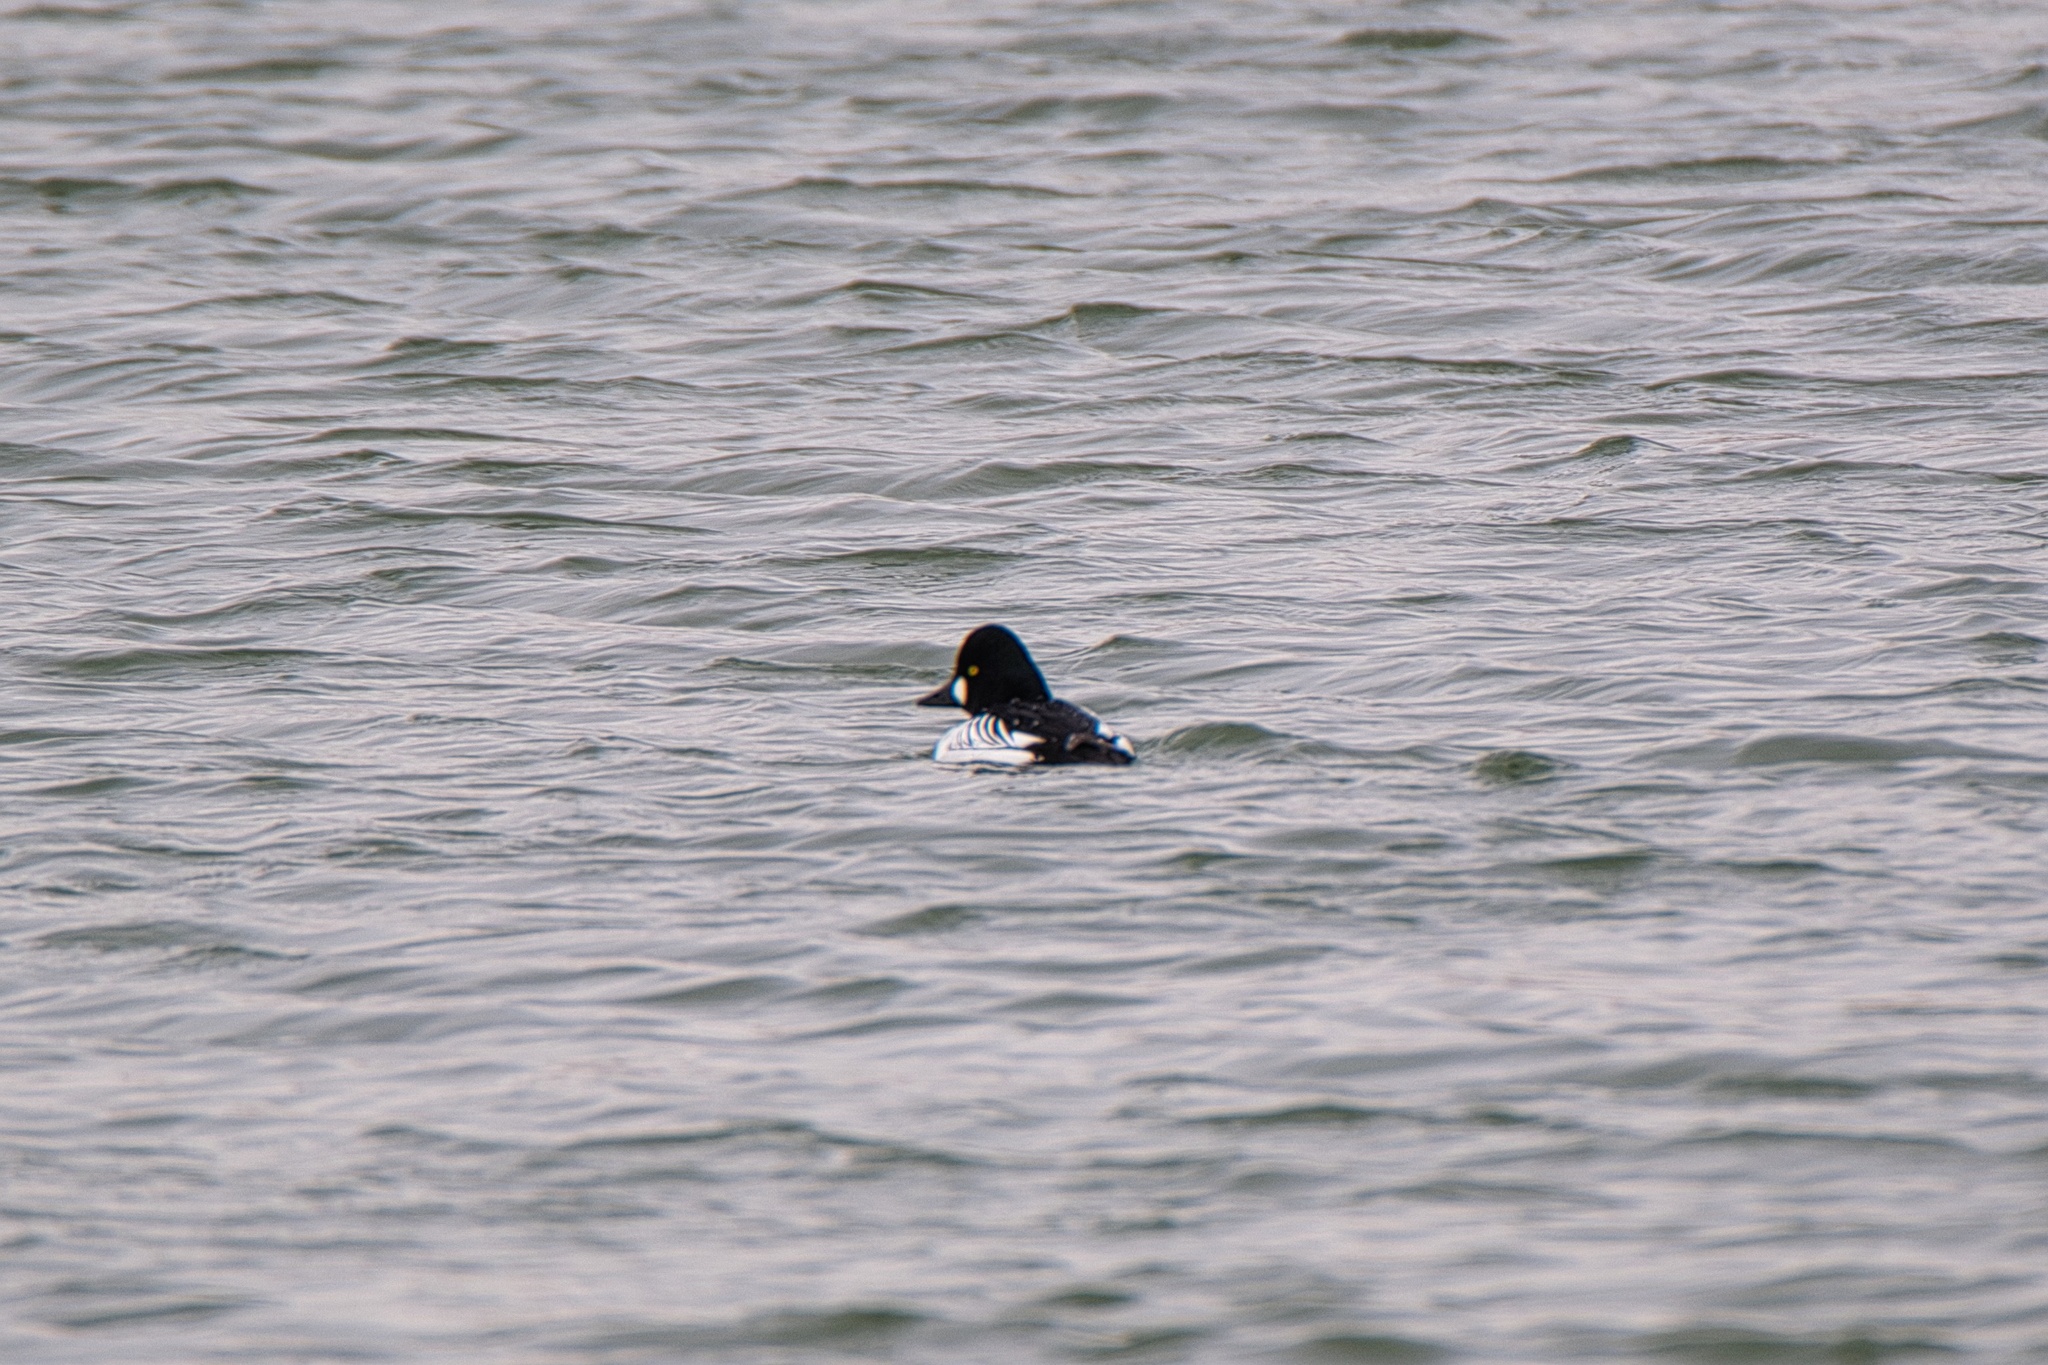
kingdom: Animalia
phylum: Chordata
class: Aves
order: Anseriformes
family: Anatidae
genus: Bucephala
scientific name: Bucephala clangula
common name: Common goldeneye
